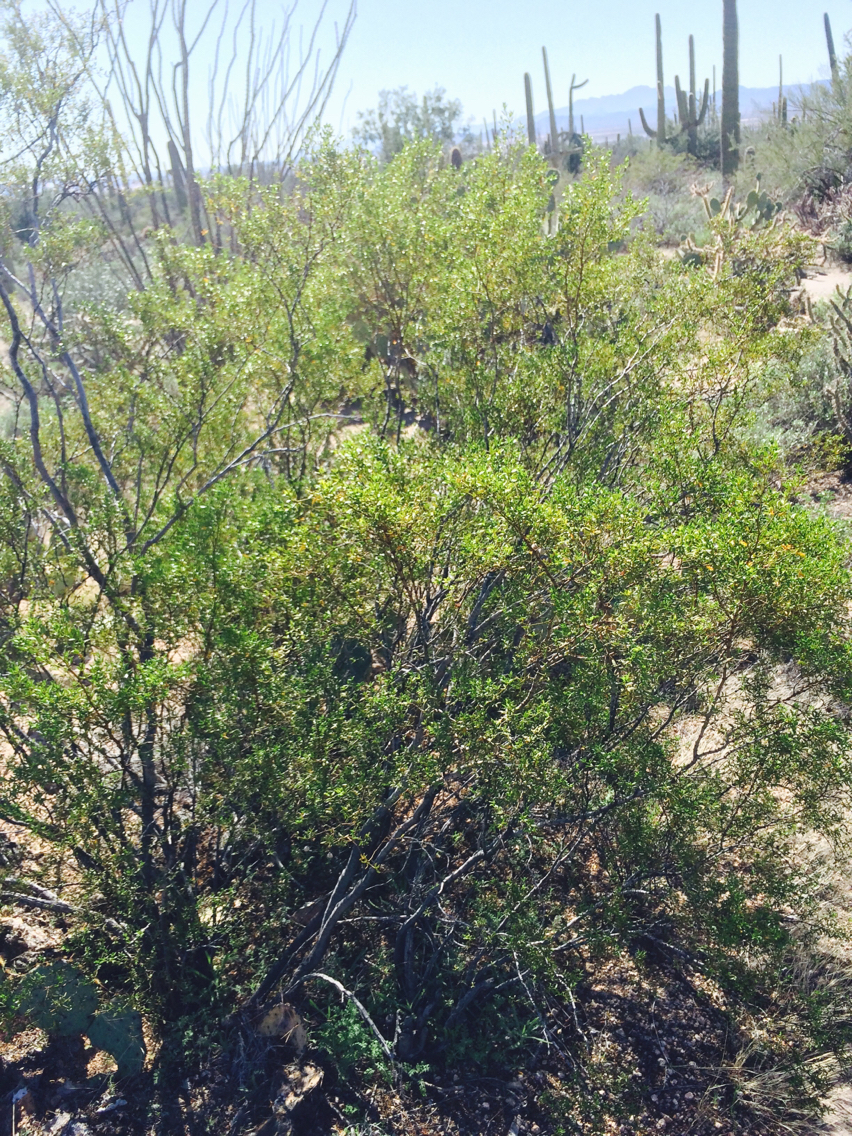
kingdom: Plantae
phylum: Tracheophyta
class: Magnoliopsida
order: Zygophyllales
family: Zygophyllaceae
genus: Larrea
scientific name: Larrea tridentata
